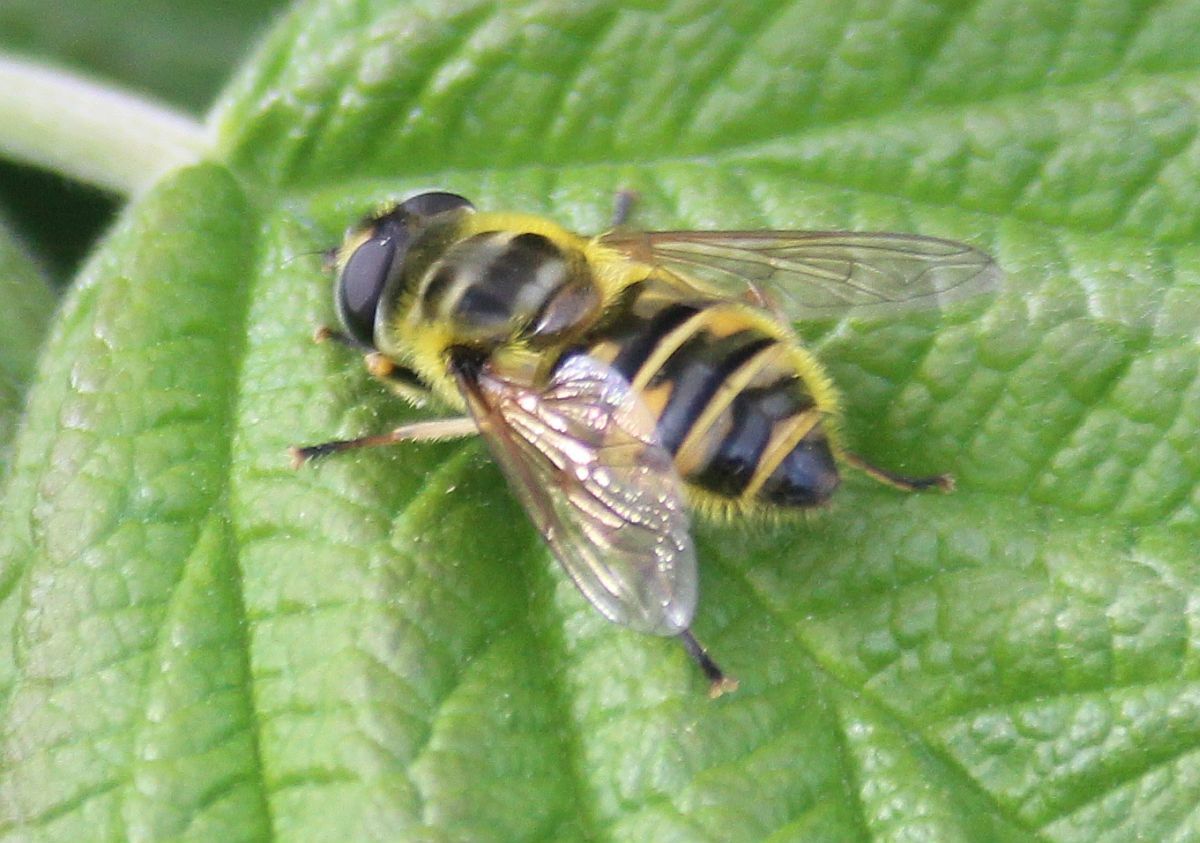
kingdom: Animalia
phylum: Arthropoda
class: Insecta
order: Diptera
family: Syrphidae
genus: Myathropa
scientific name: Myathropa florea
